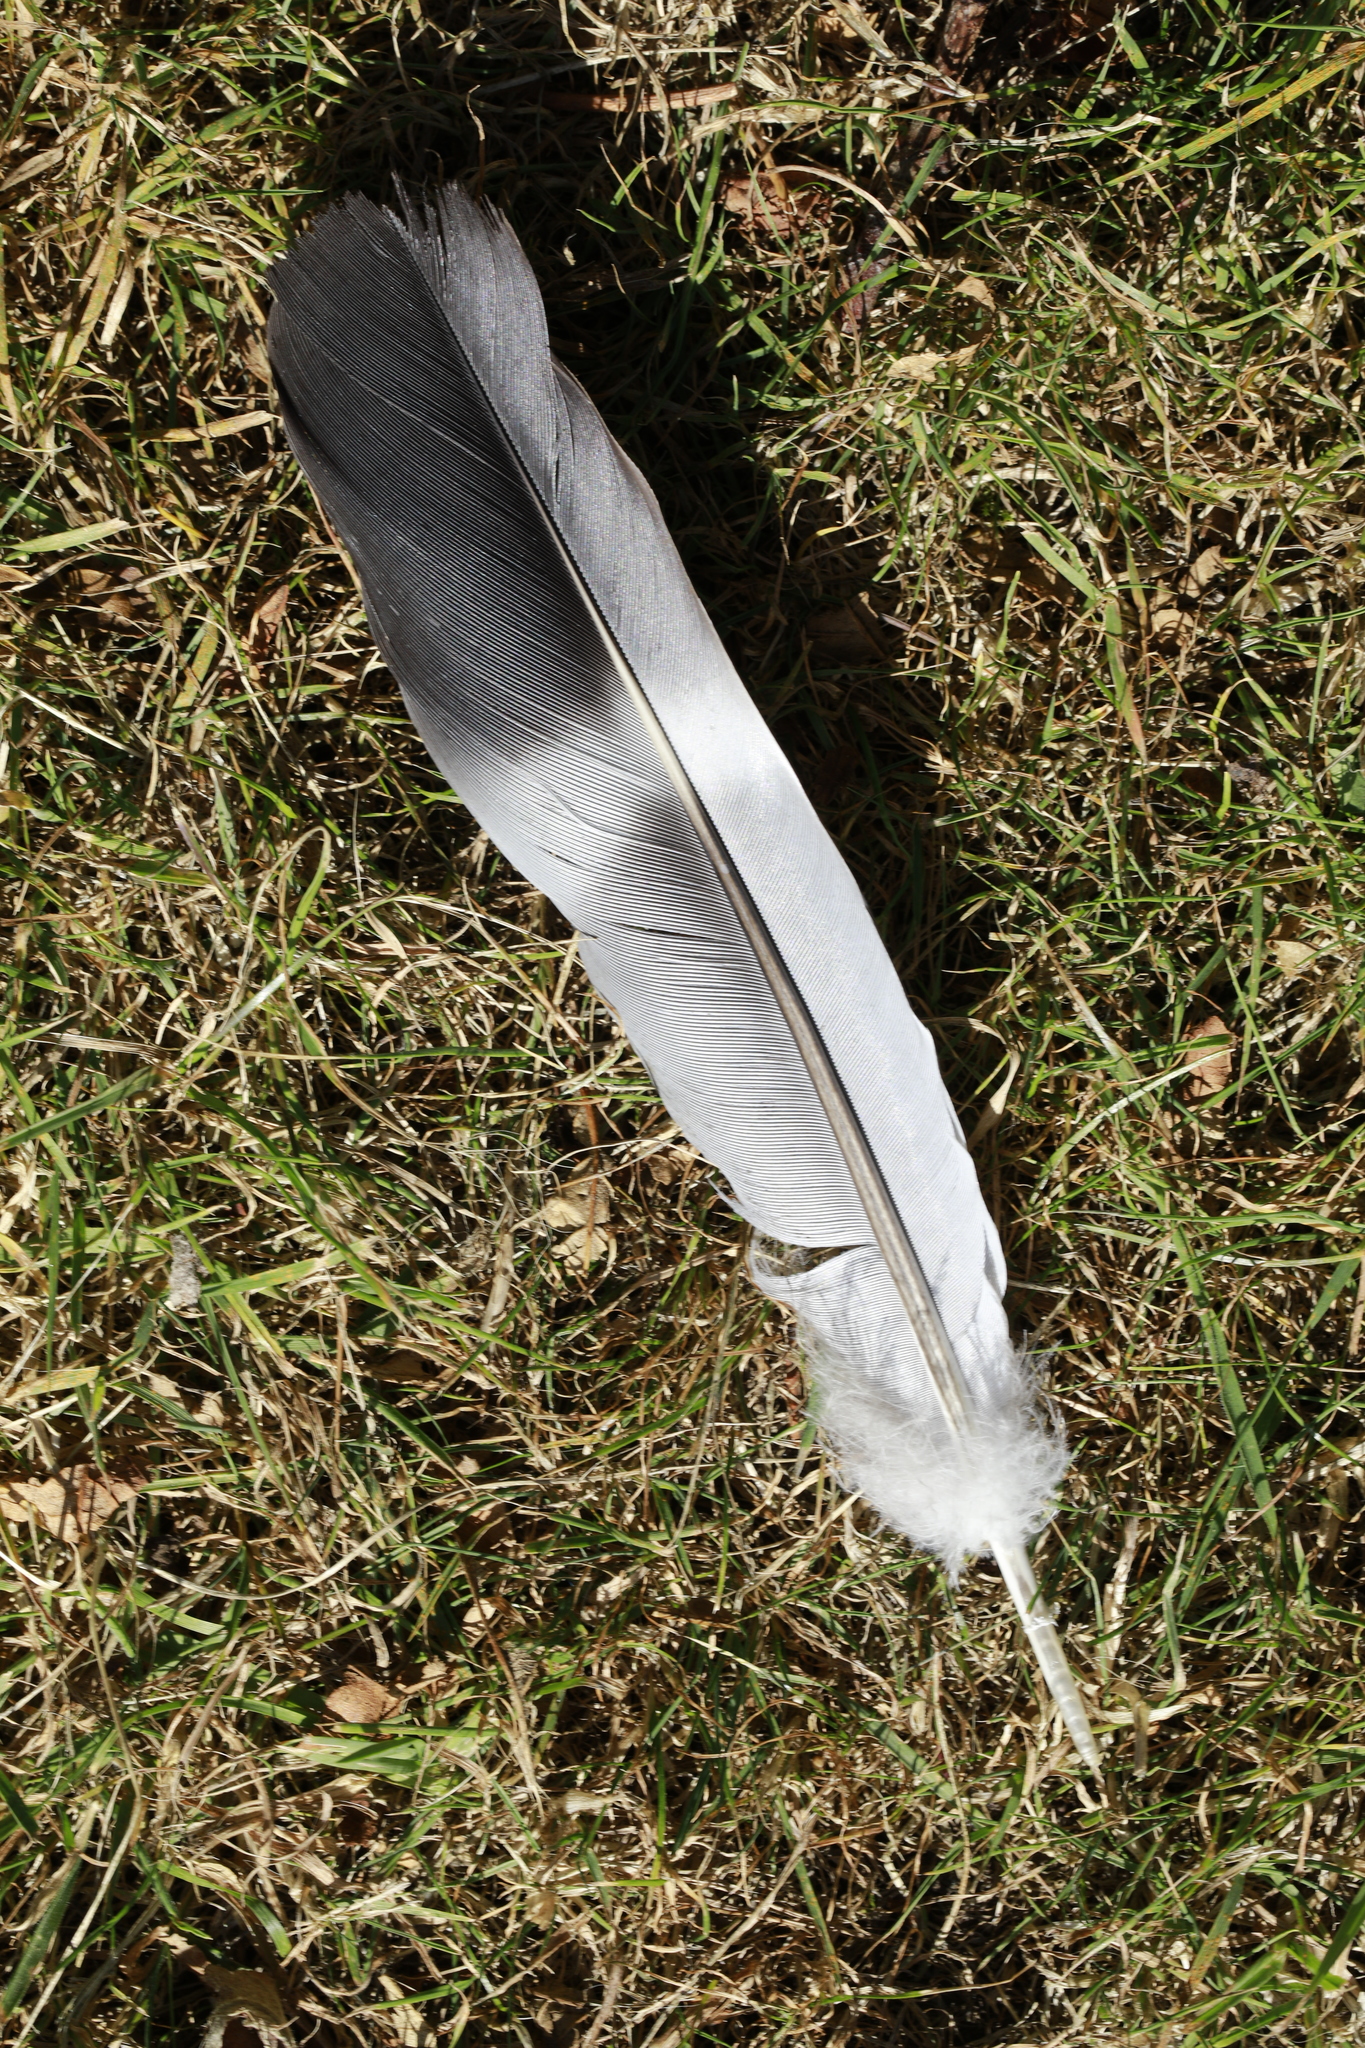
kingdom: Animalia
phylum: Chordata
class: Aves
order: Columbiformes
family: Columbidae
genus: Columba
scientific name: Columba palumbus
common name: Common wood pigeon
